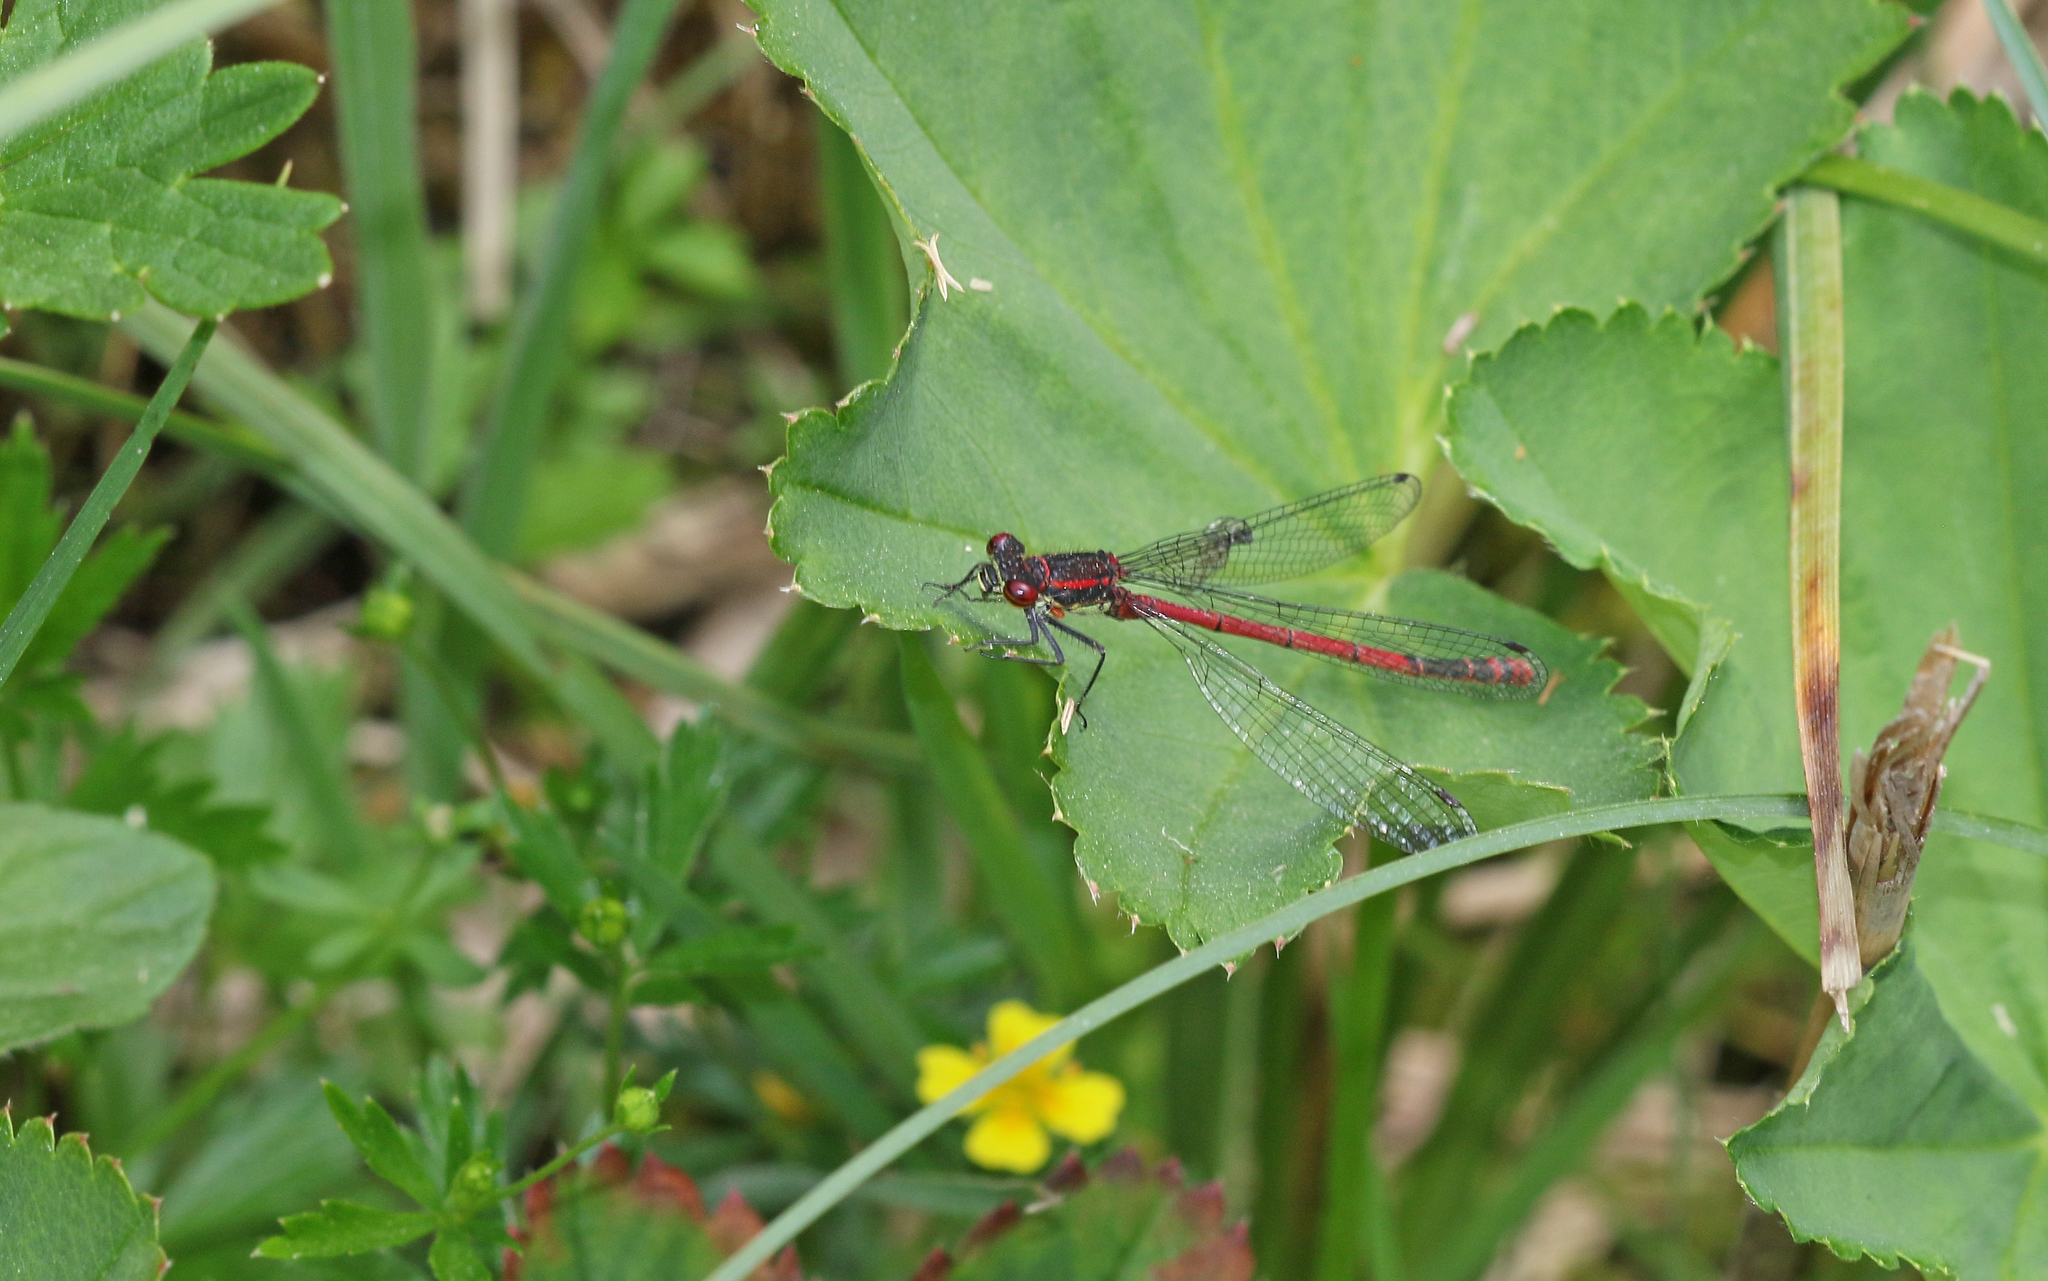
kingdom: Animalia
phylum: Arthropoda
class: Insecta
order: Odonata
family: Coenagrionidae
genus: Pyrrhosoma
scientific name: Pyrrhosoma nymphula
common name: Large red damsel
